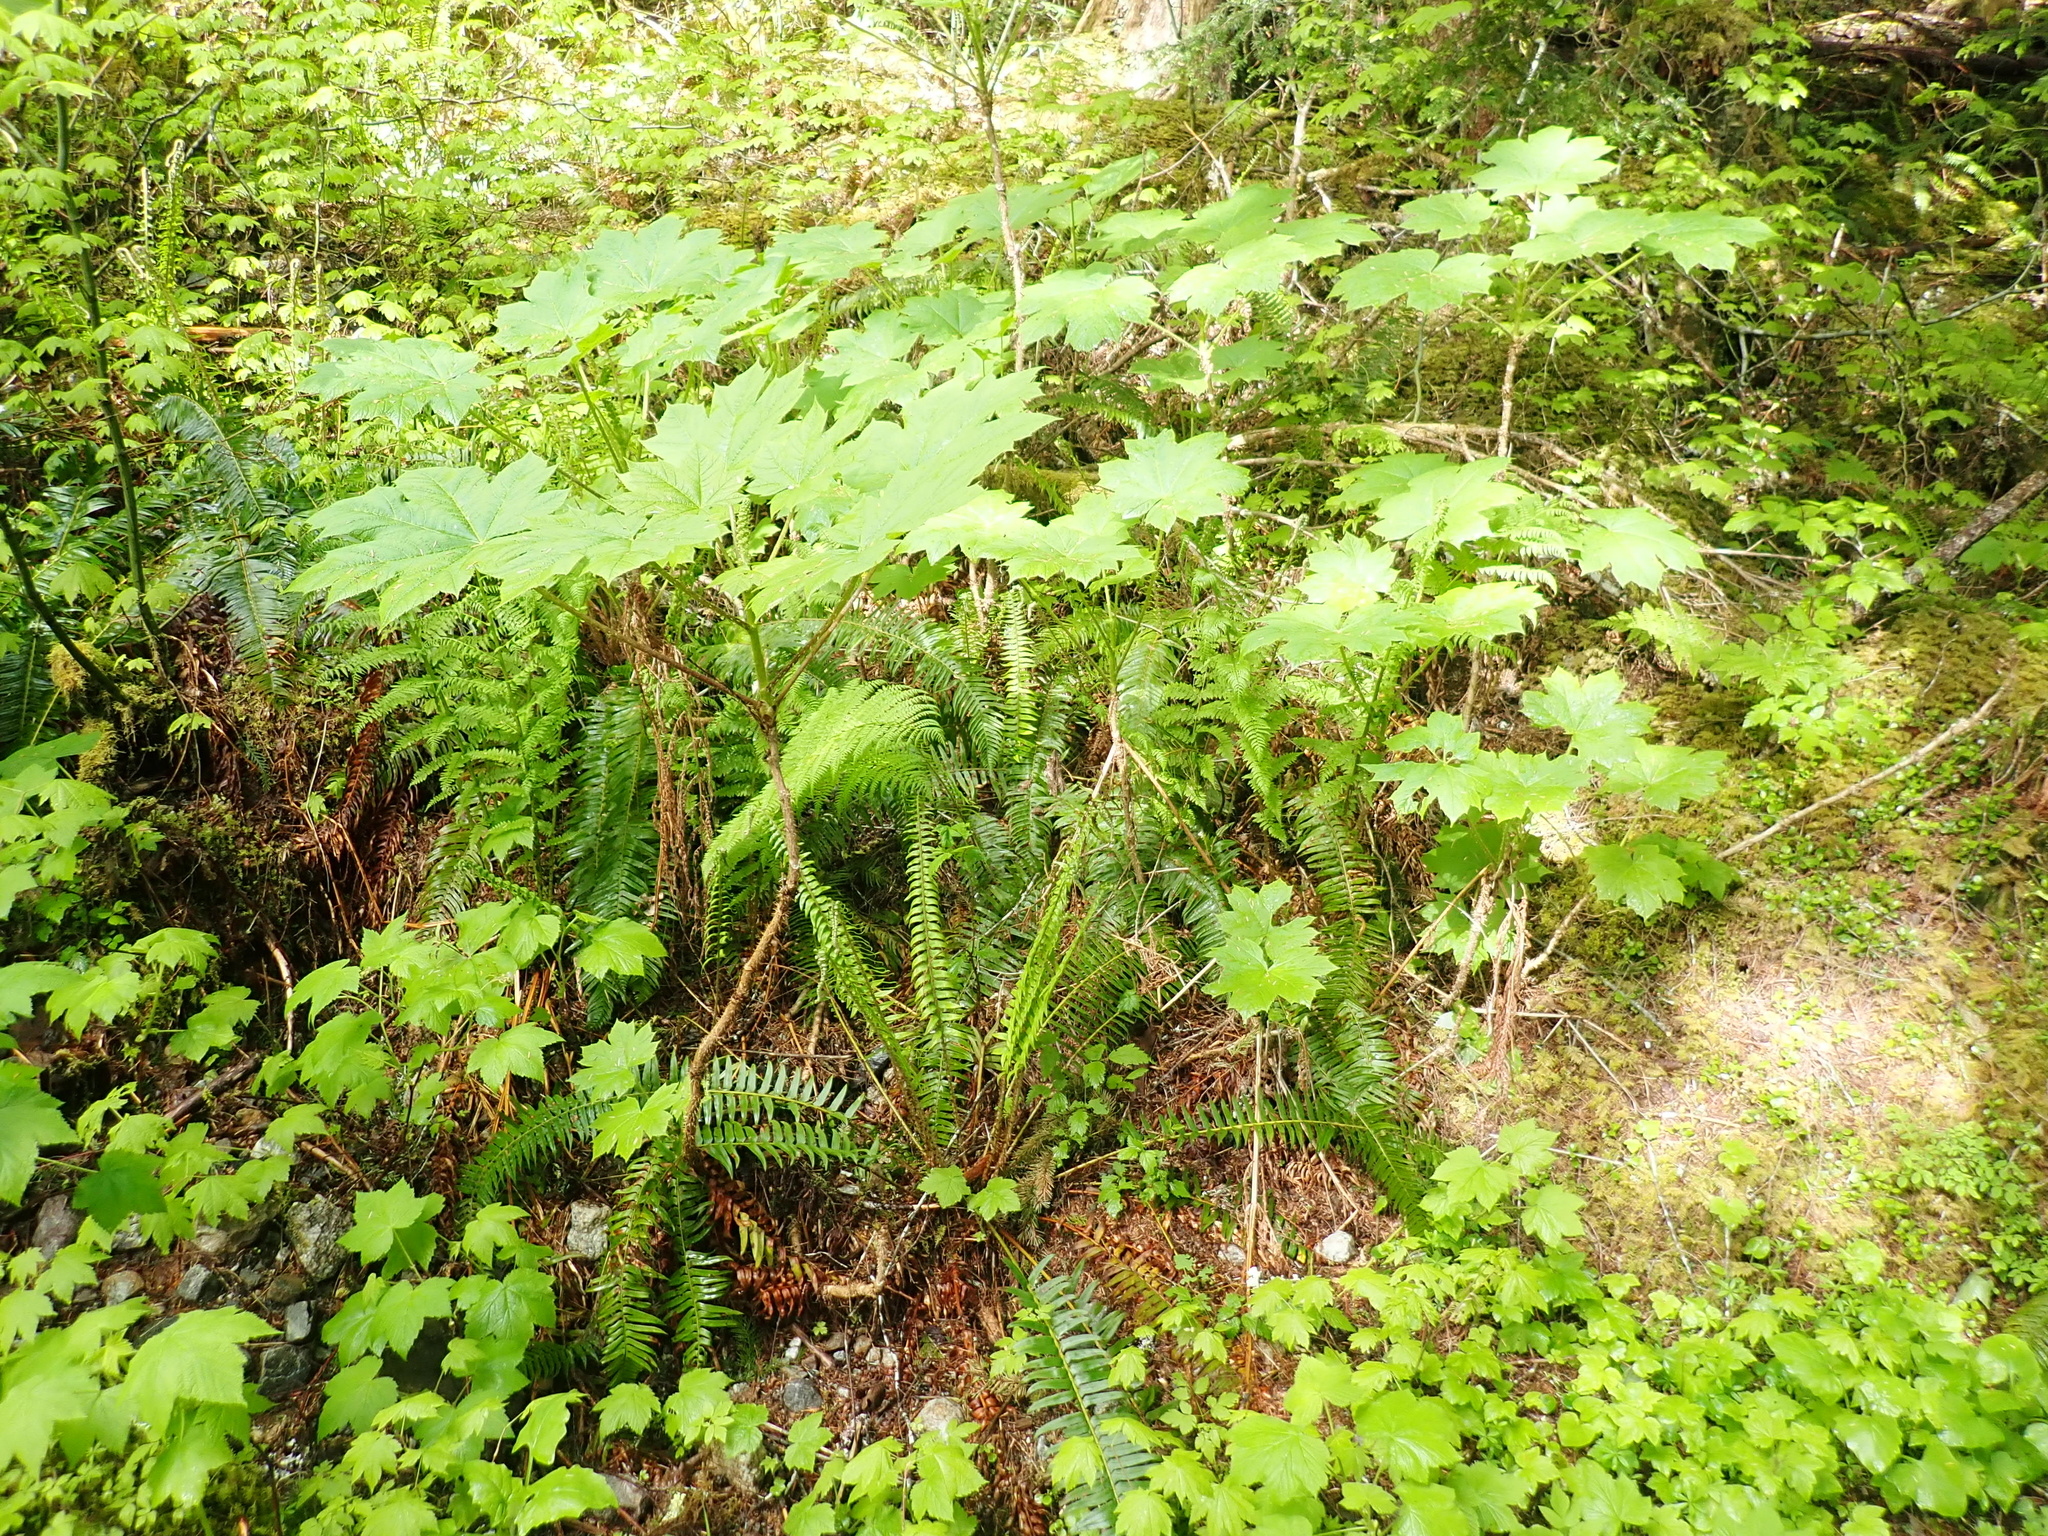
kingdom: Plantae
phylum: Tracheophyta
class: Magnoliopsida
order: Apiales
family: Araliaceae
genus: Oplopanax
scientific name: Oplopanax horridus
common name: Devil's walking-stick
